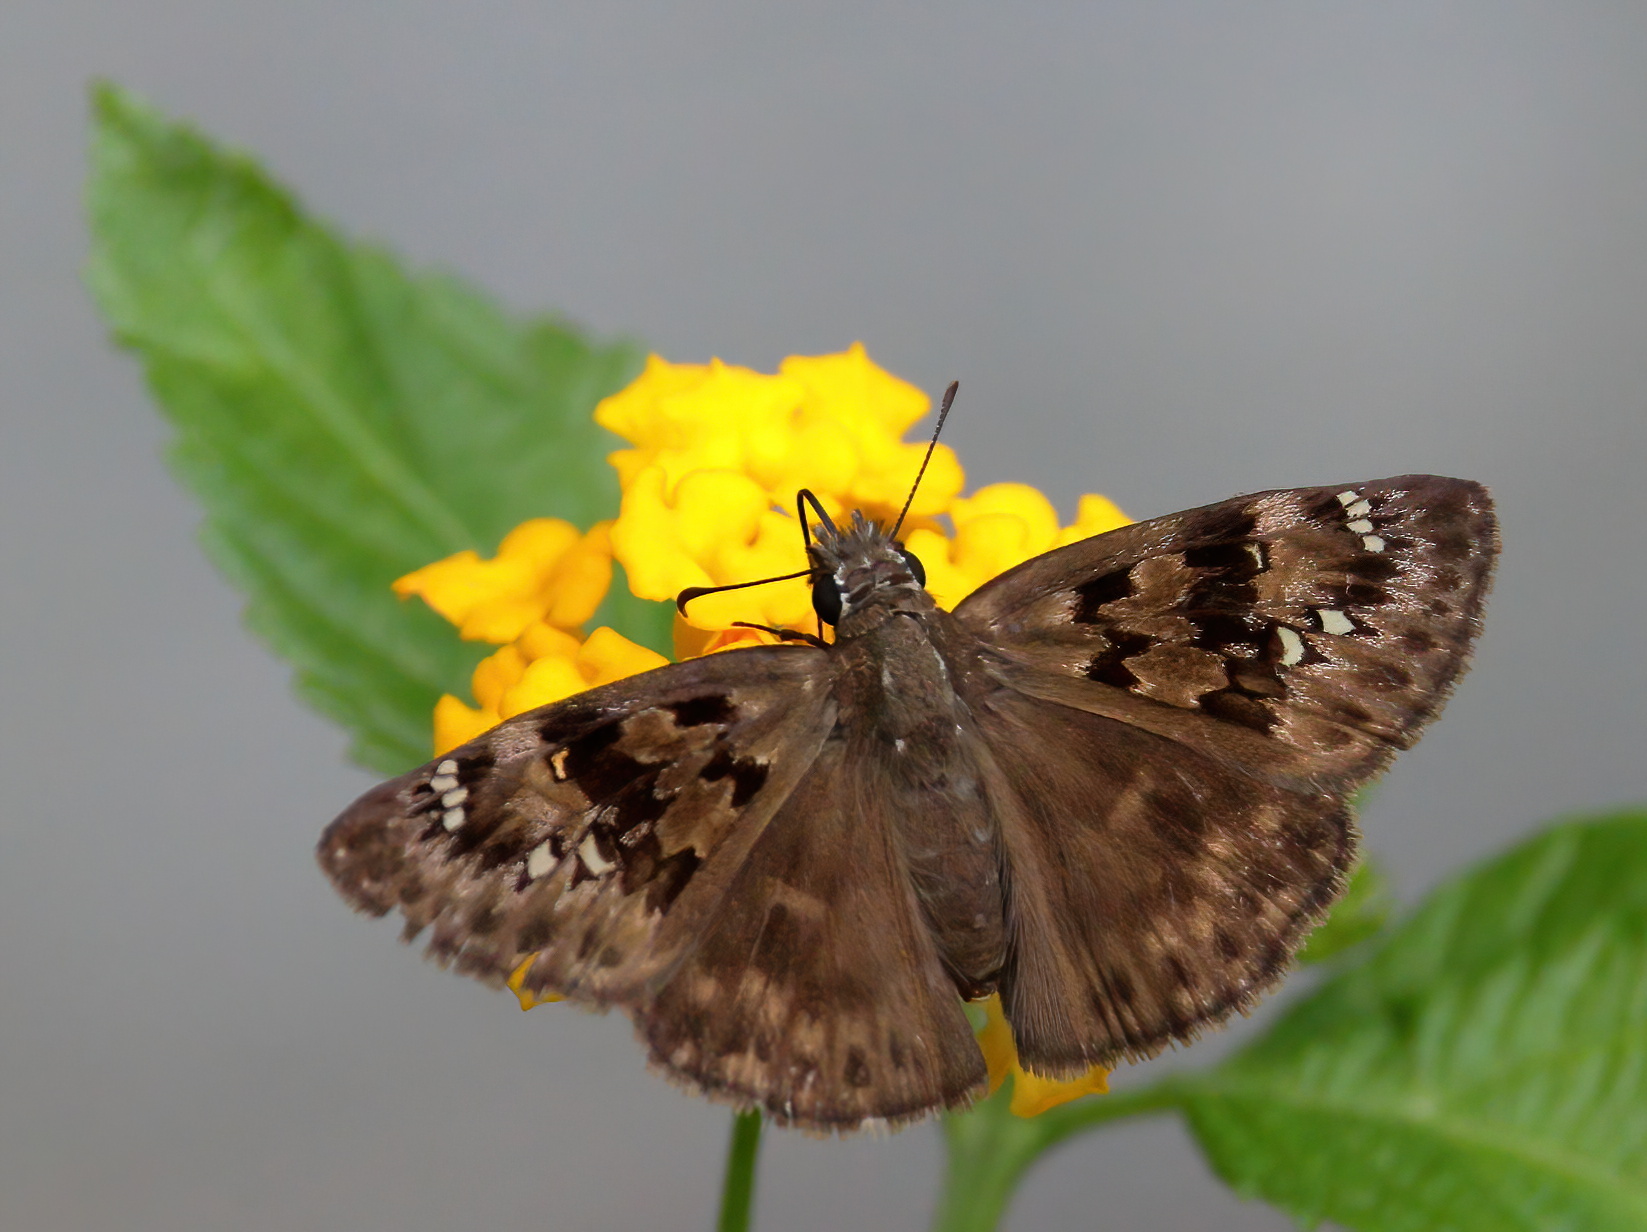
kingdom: Animalia
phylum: Arthropoda
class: Insecta
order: Lepidoptera
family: Hesperiidae
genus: Erynnis
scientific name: Erynnis horatius
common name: Horace's duskywing
